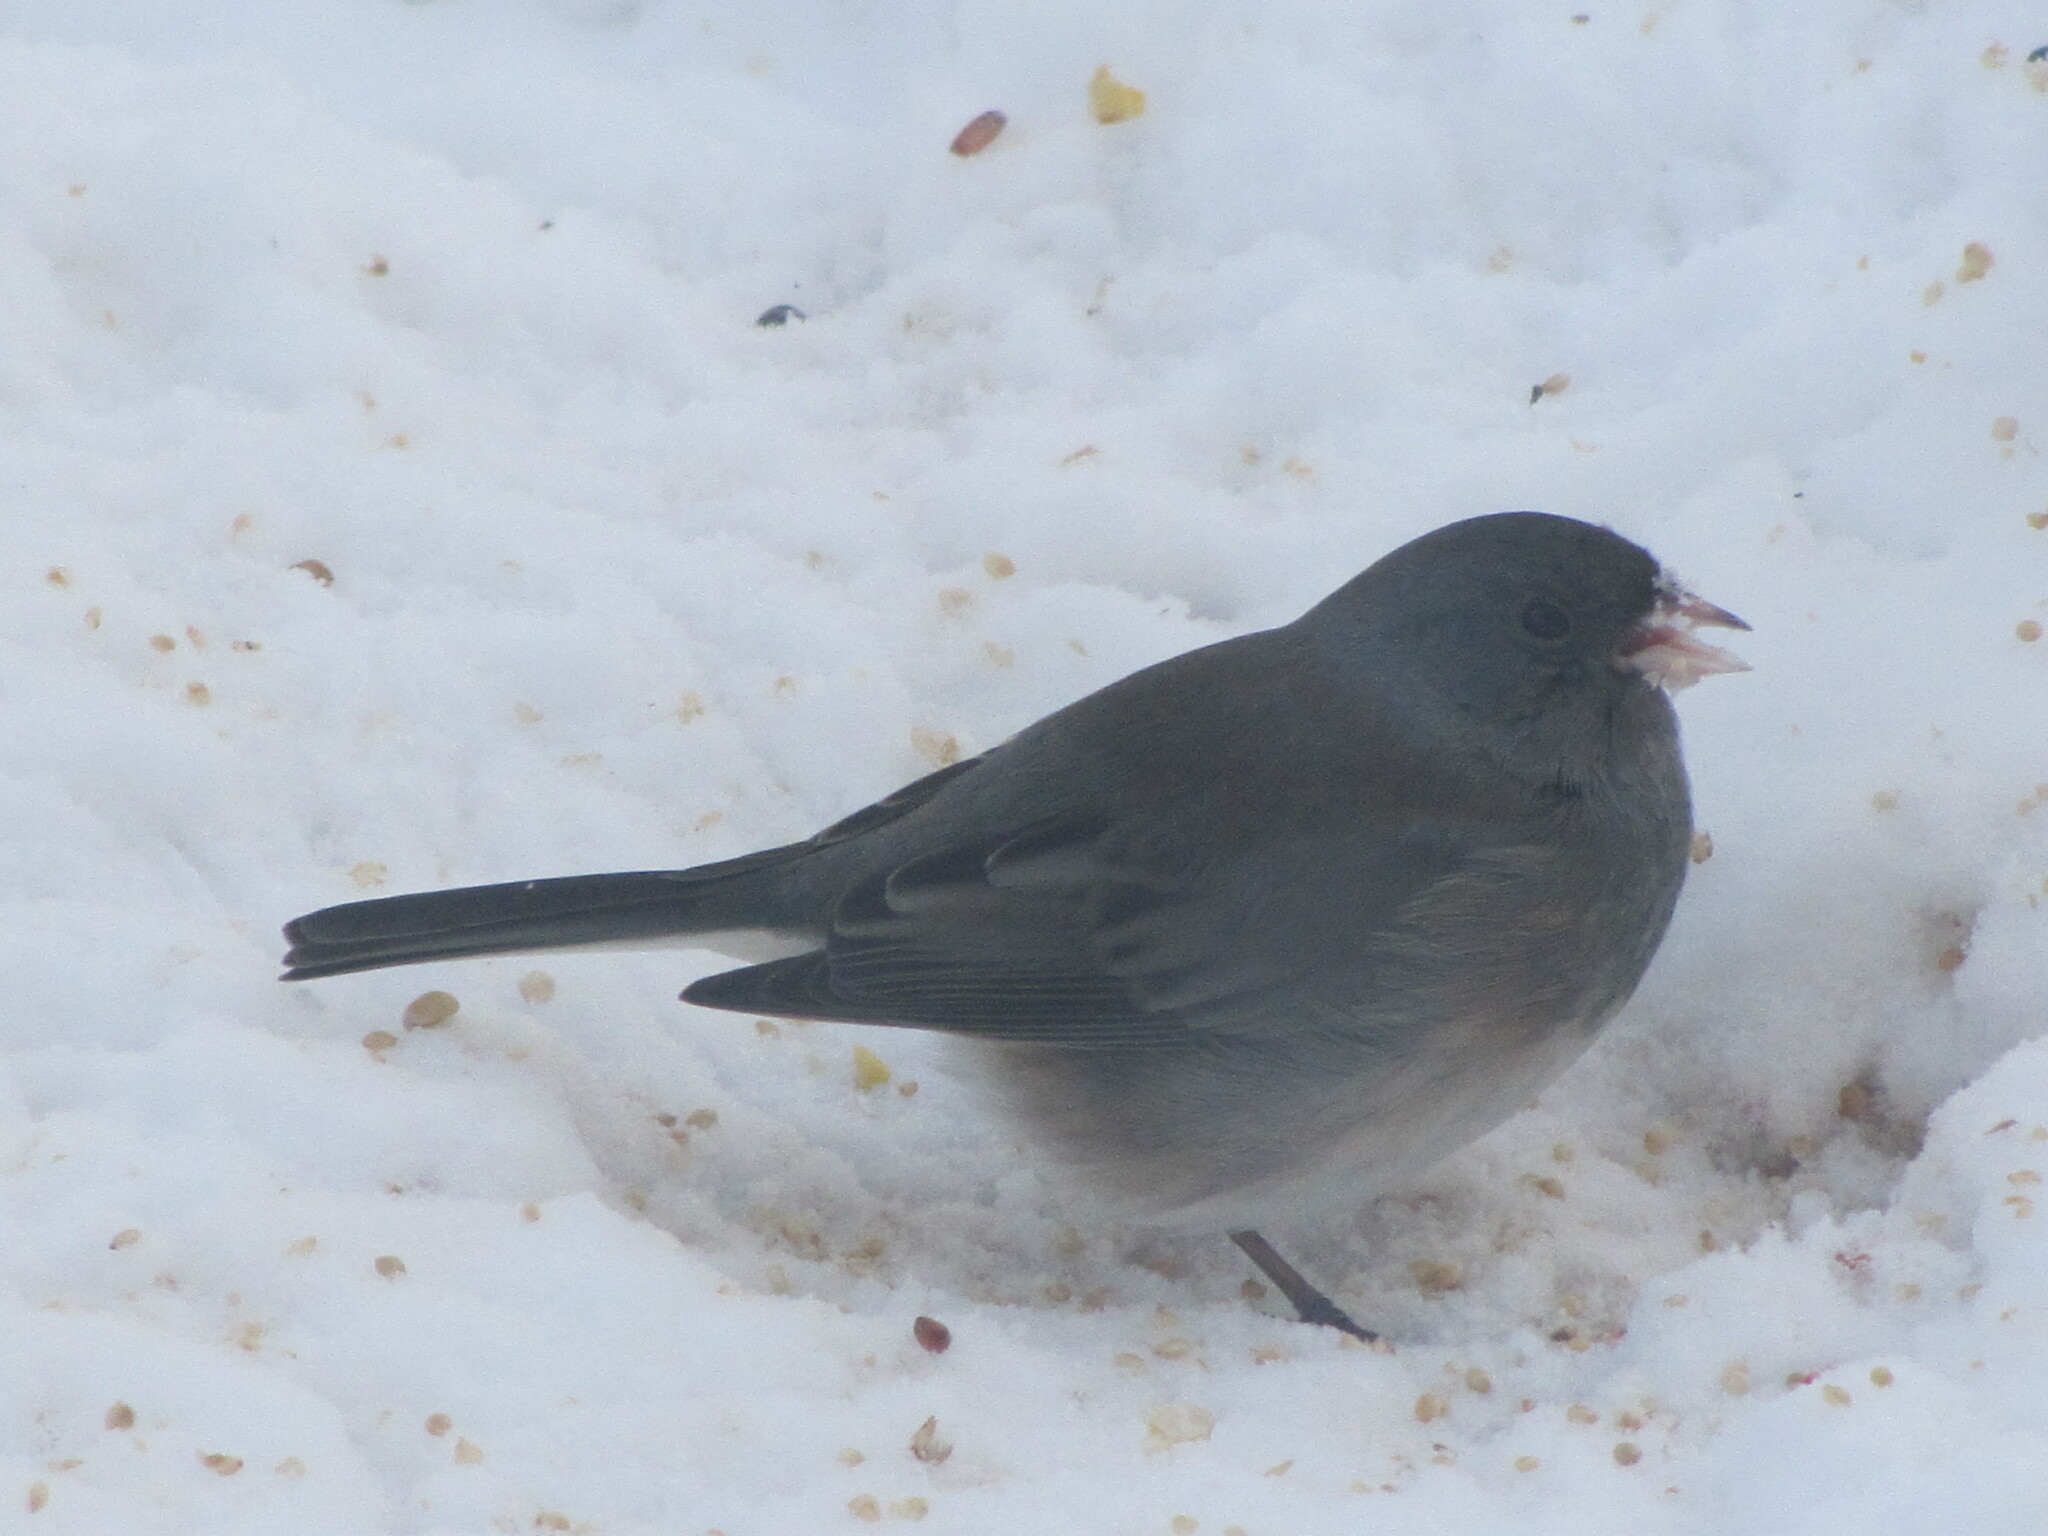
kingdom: Animalia
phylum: Chordata
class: Aves
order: Passeriformes
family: Passerellidae
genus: Junco
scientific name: Junco hyemalis
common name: Dark-eyed junco
